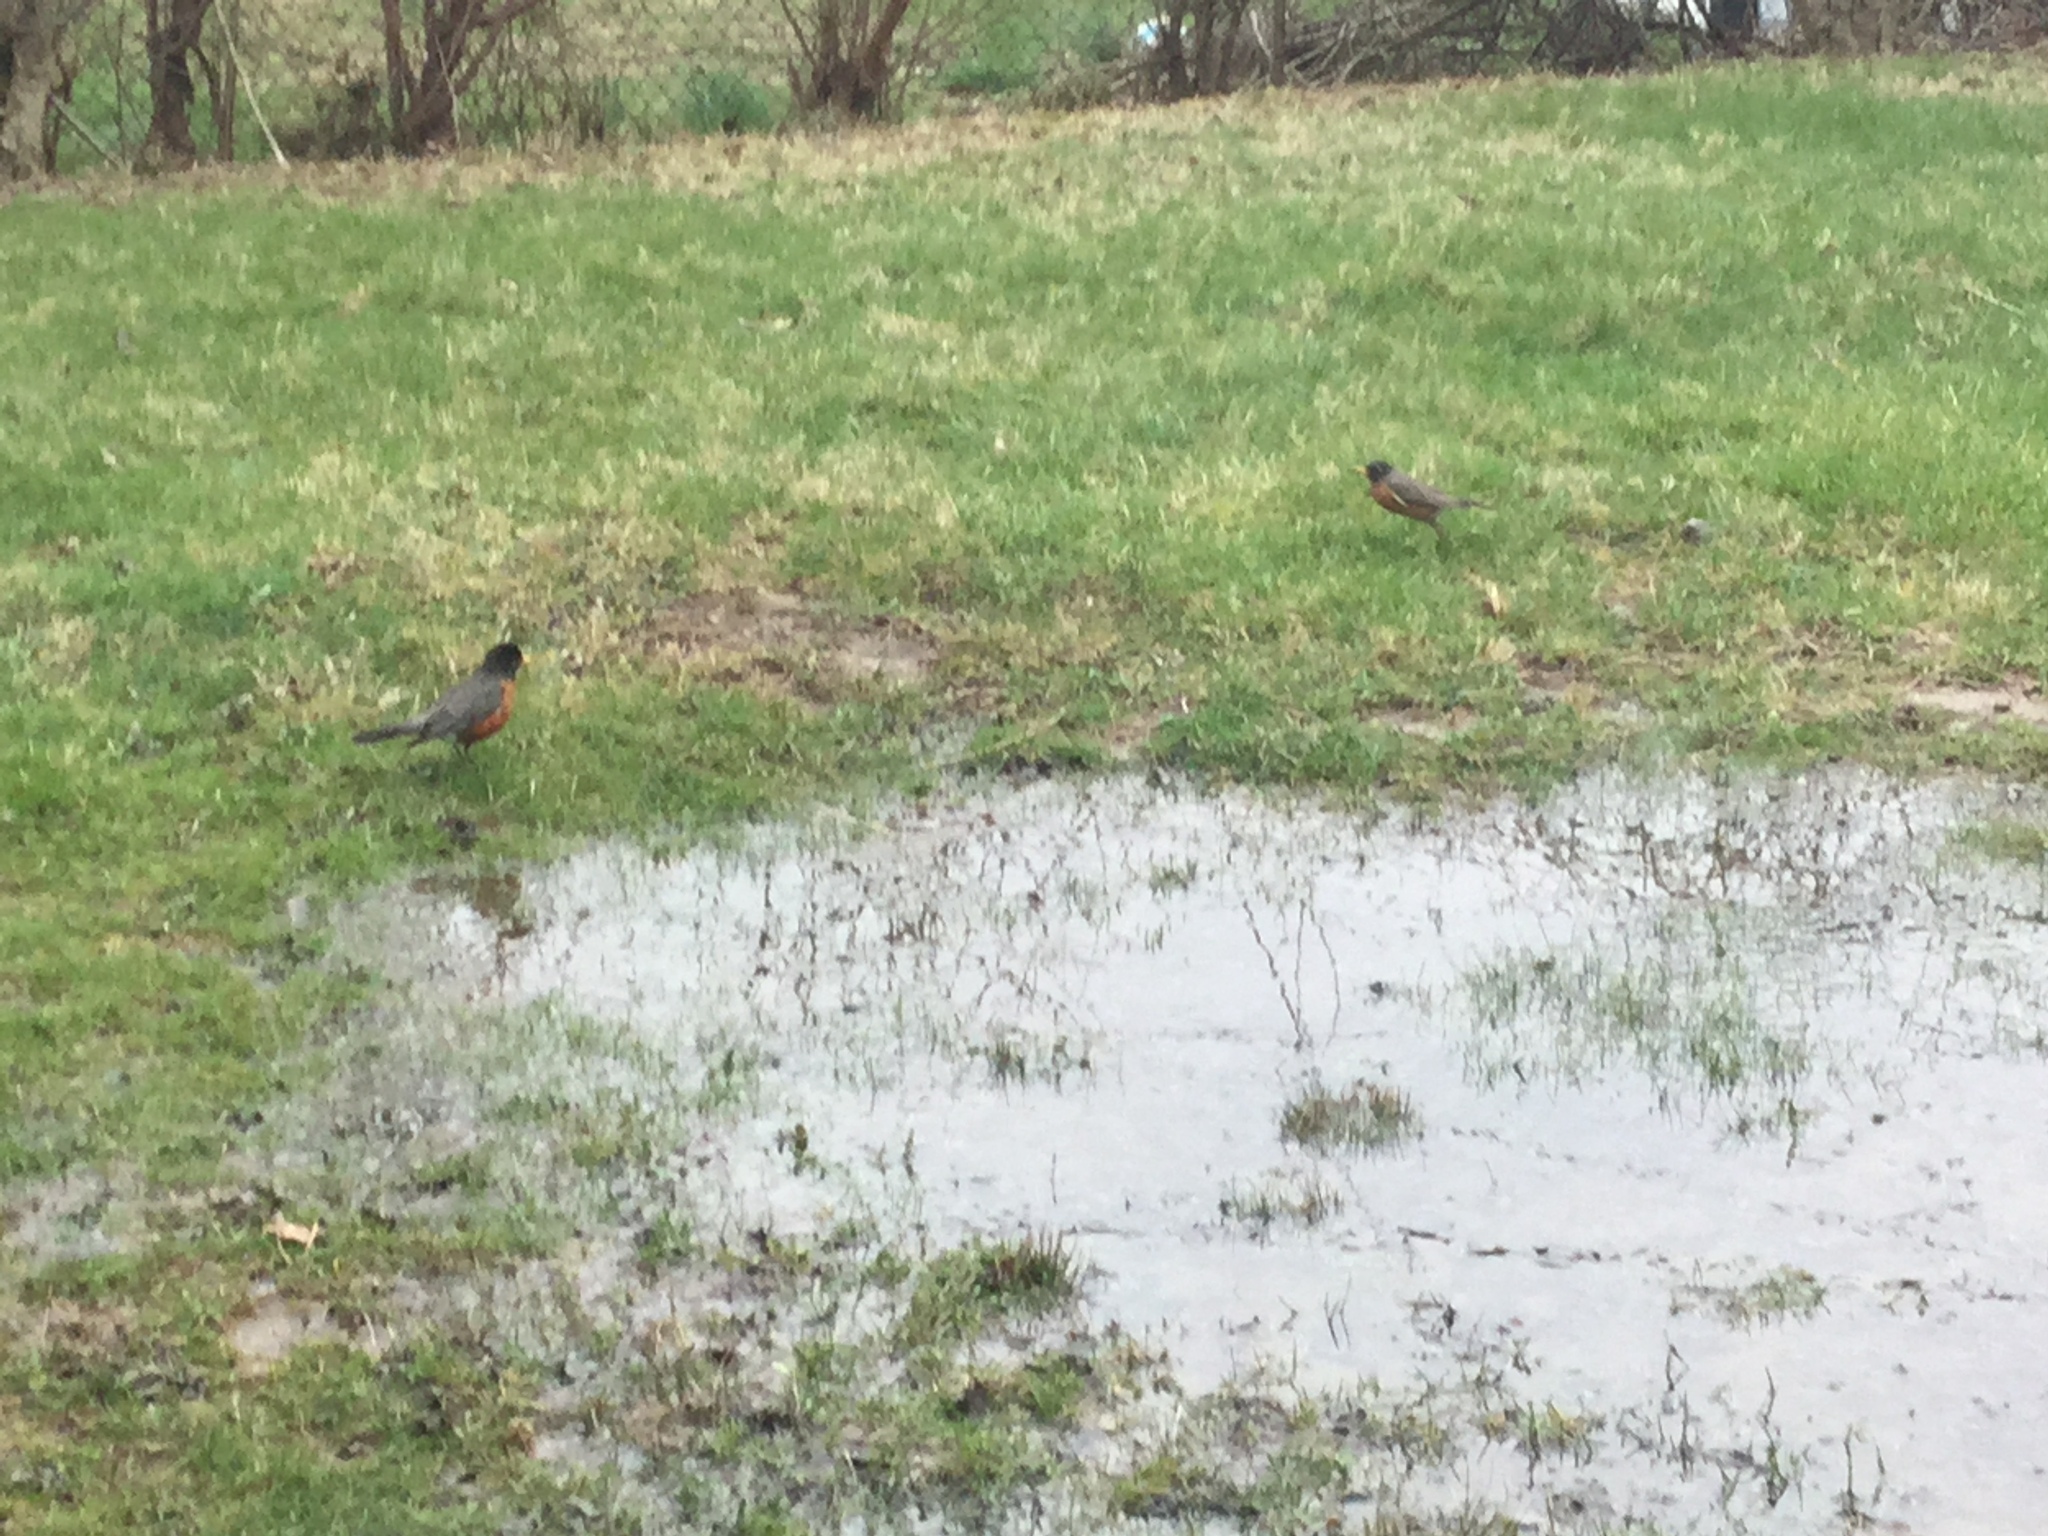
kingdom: Animalia
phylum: Chordata
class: Aves
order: Passeriformes
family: Turdidae
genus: Turdus
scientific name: Turdus migratorius
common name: American robin
